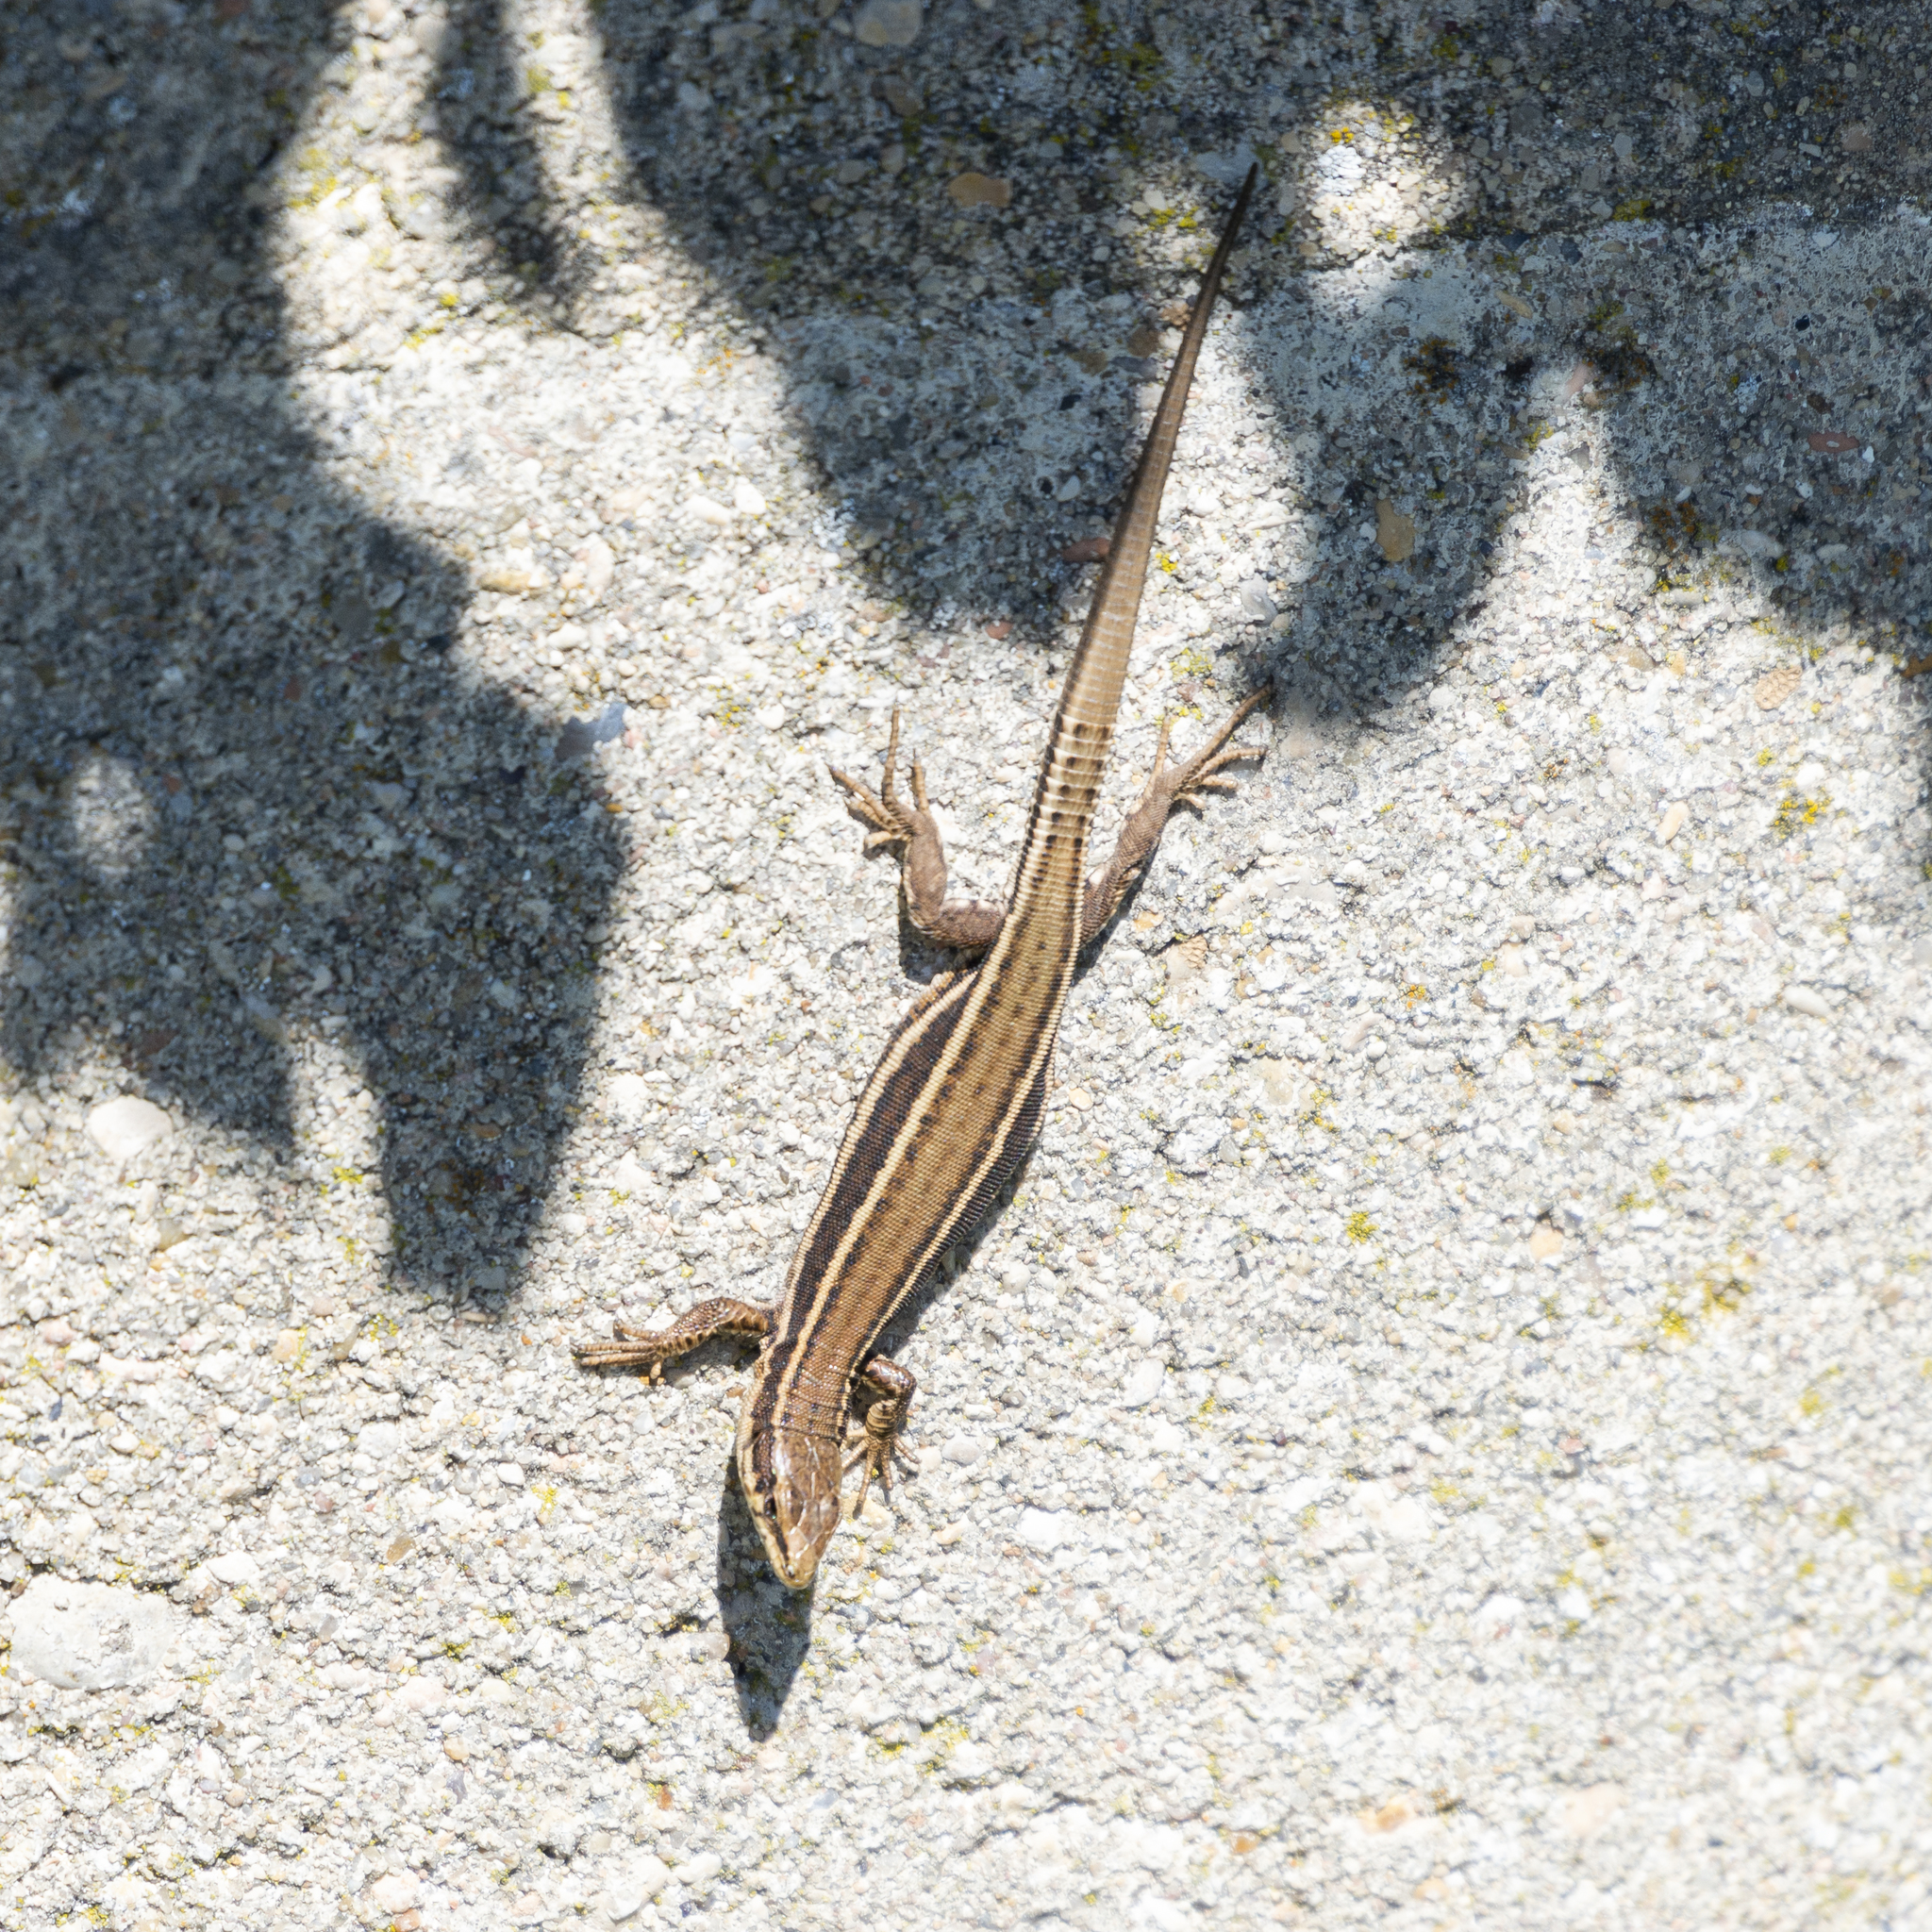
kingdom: Animalia
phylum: Chordata
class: Squamata
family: Lacertidae
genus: Podarcis
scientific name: Podarcis liolepis
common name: Catalonian wall lizard
